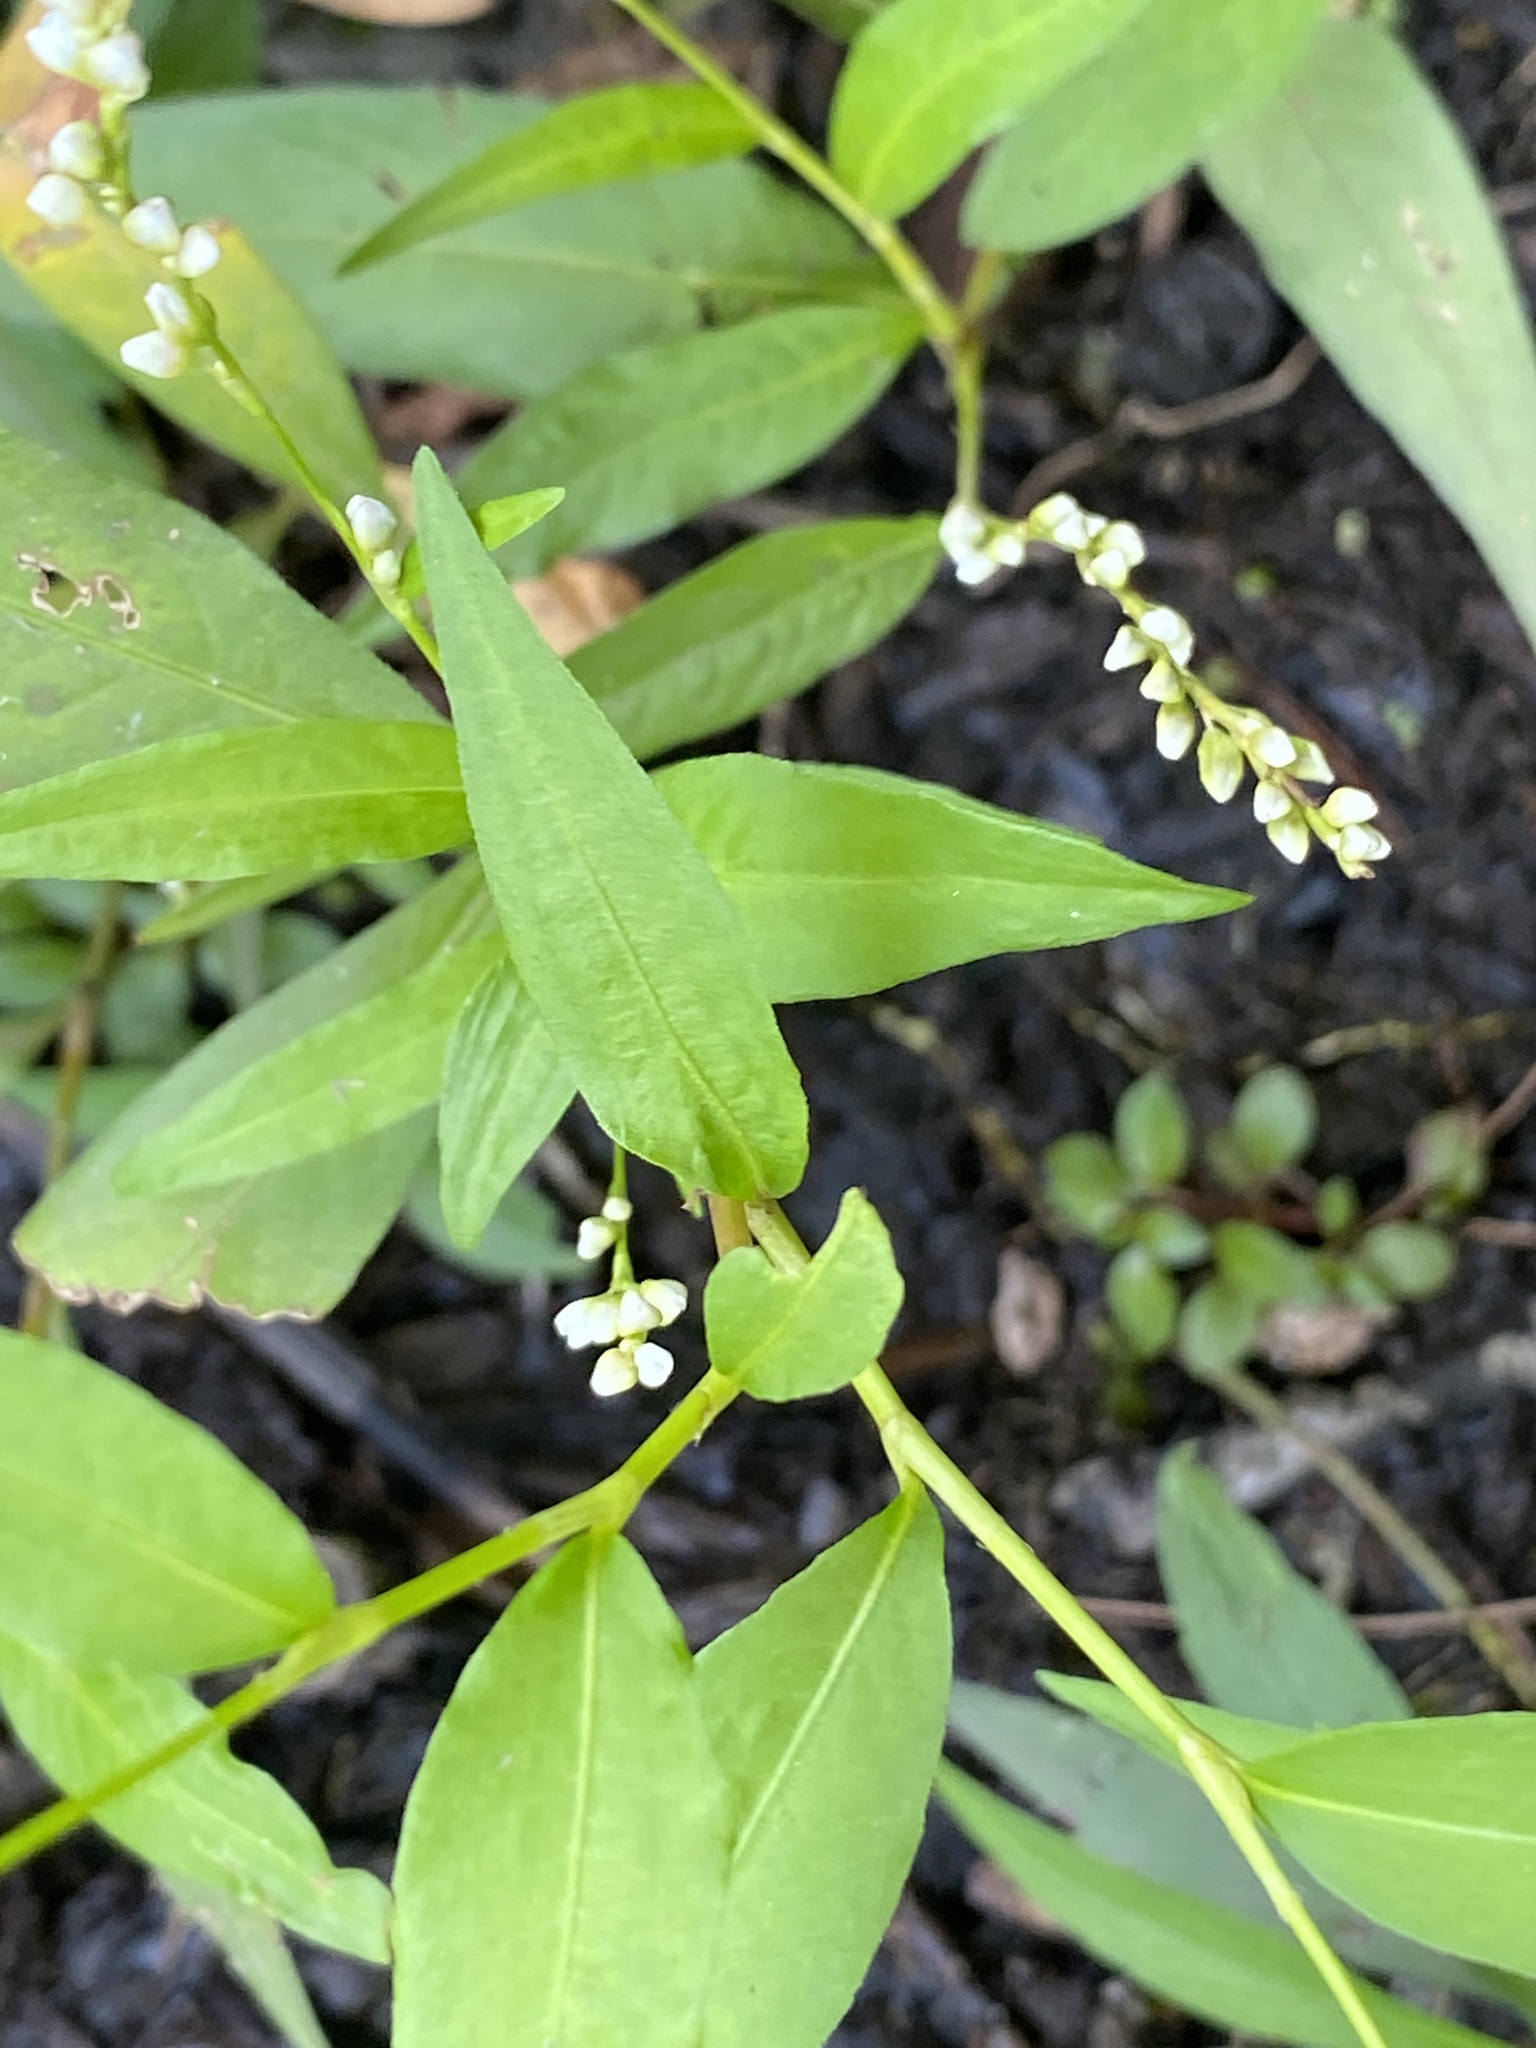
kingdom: Plantae
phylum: Tracheophyta
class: Magnoliopsida
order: Caryophyllales
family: Polygonaceae
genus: Persicaria
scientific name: Persicaria punctata
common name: Dotted smartweed
